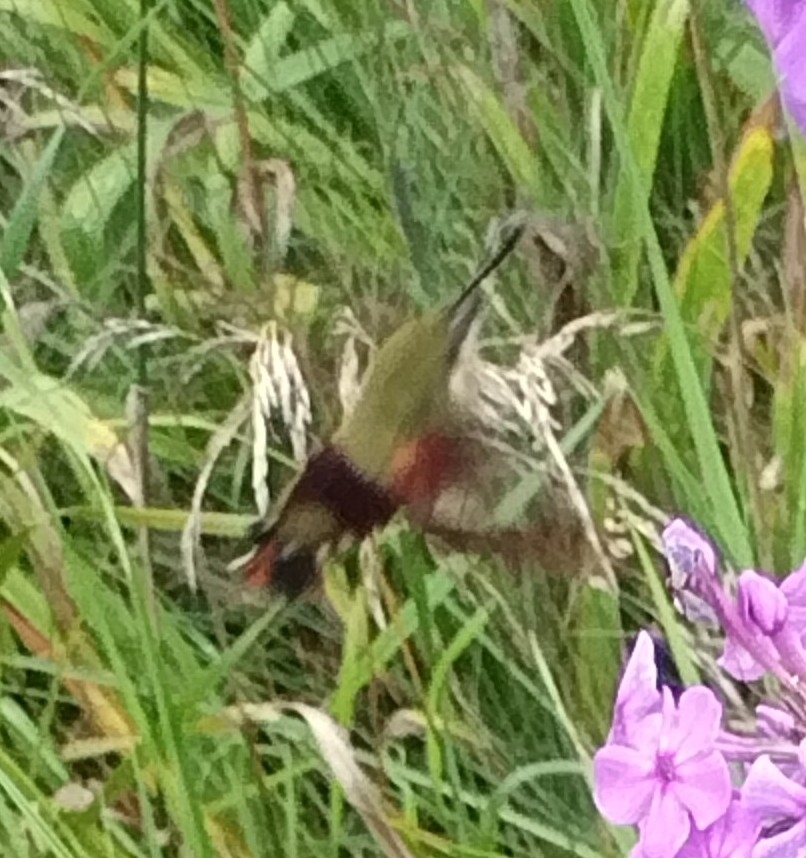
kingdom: Animalia
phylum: Arthropoda
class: Insecta
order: Lepidoptera
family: Sphingidae
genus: Hemaris
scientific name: Hemaris thysbe
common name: Common clear-wing
